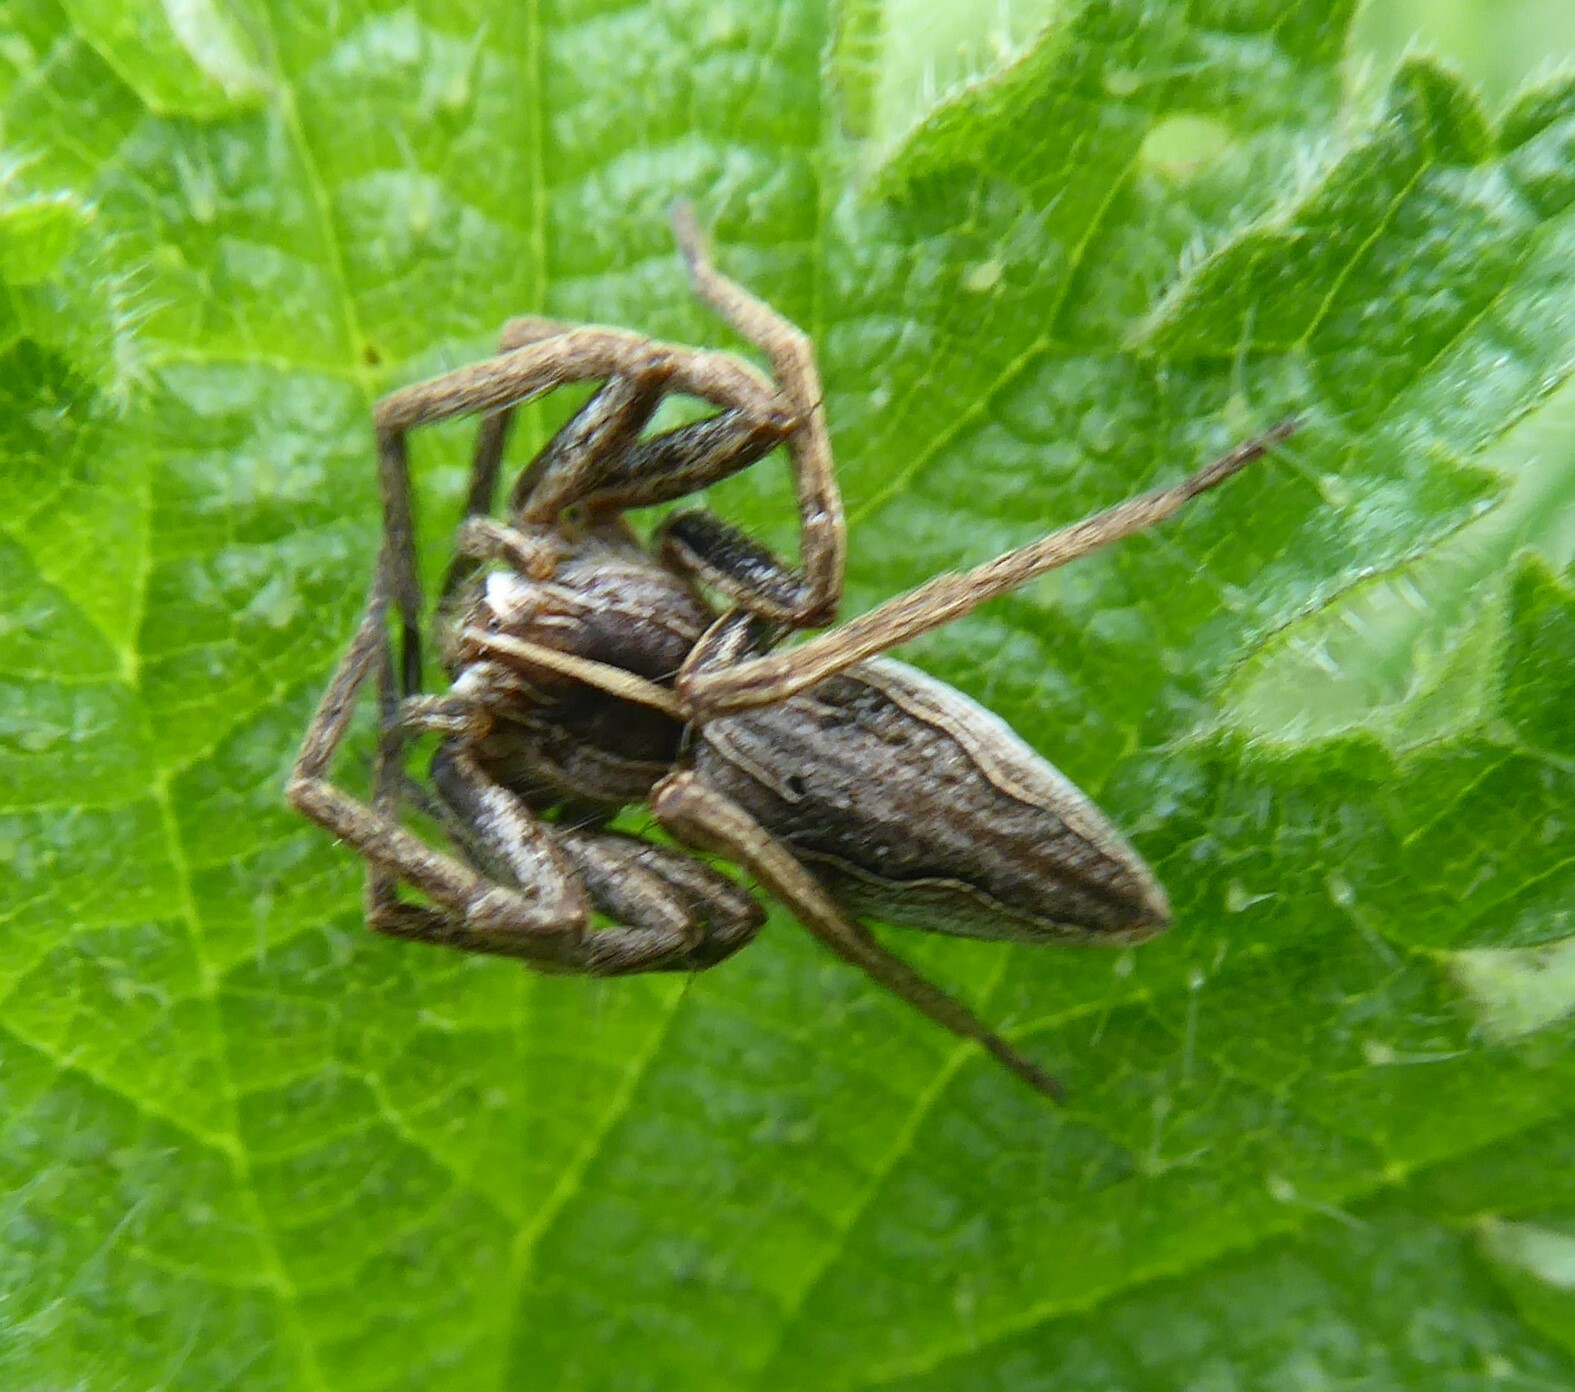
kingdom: Animalia
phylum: Arthropoda
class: Arachnida
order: Araneae
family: Pisauridae
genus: Pisaura
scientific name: Pisaura mirabilis
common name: Tent spider
